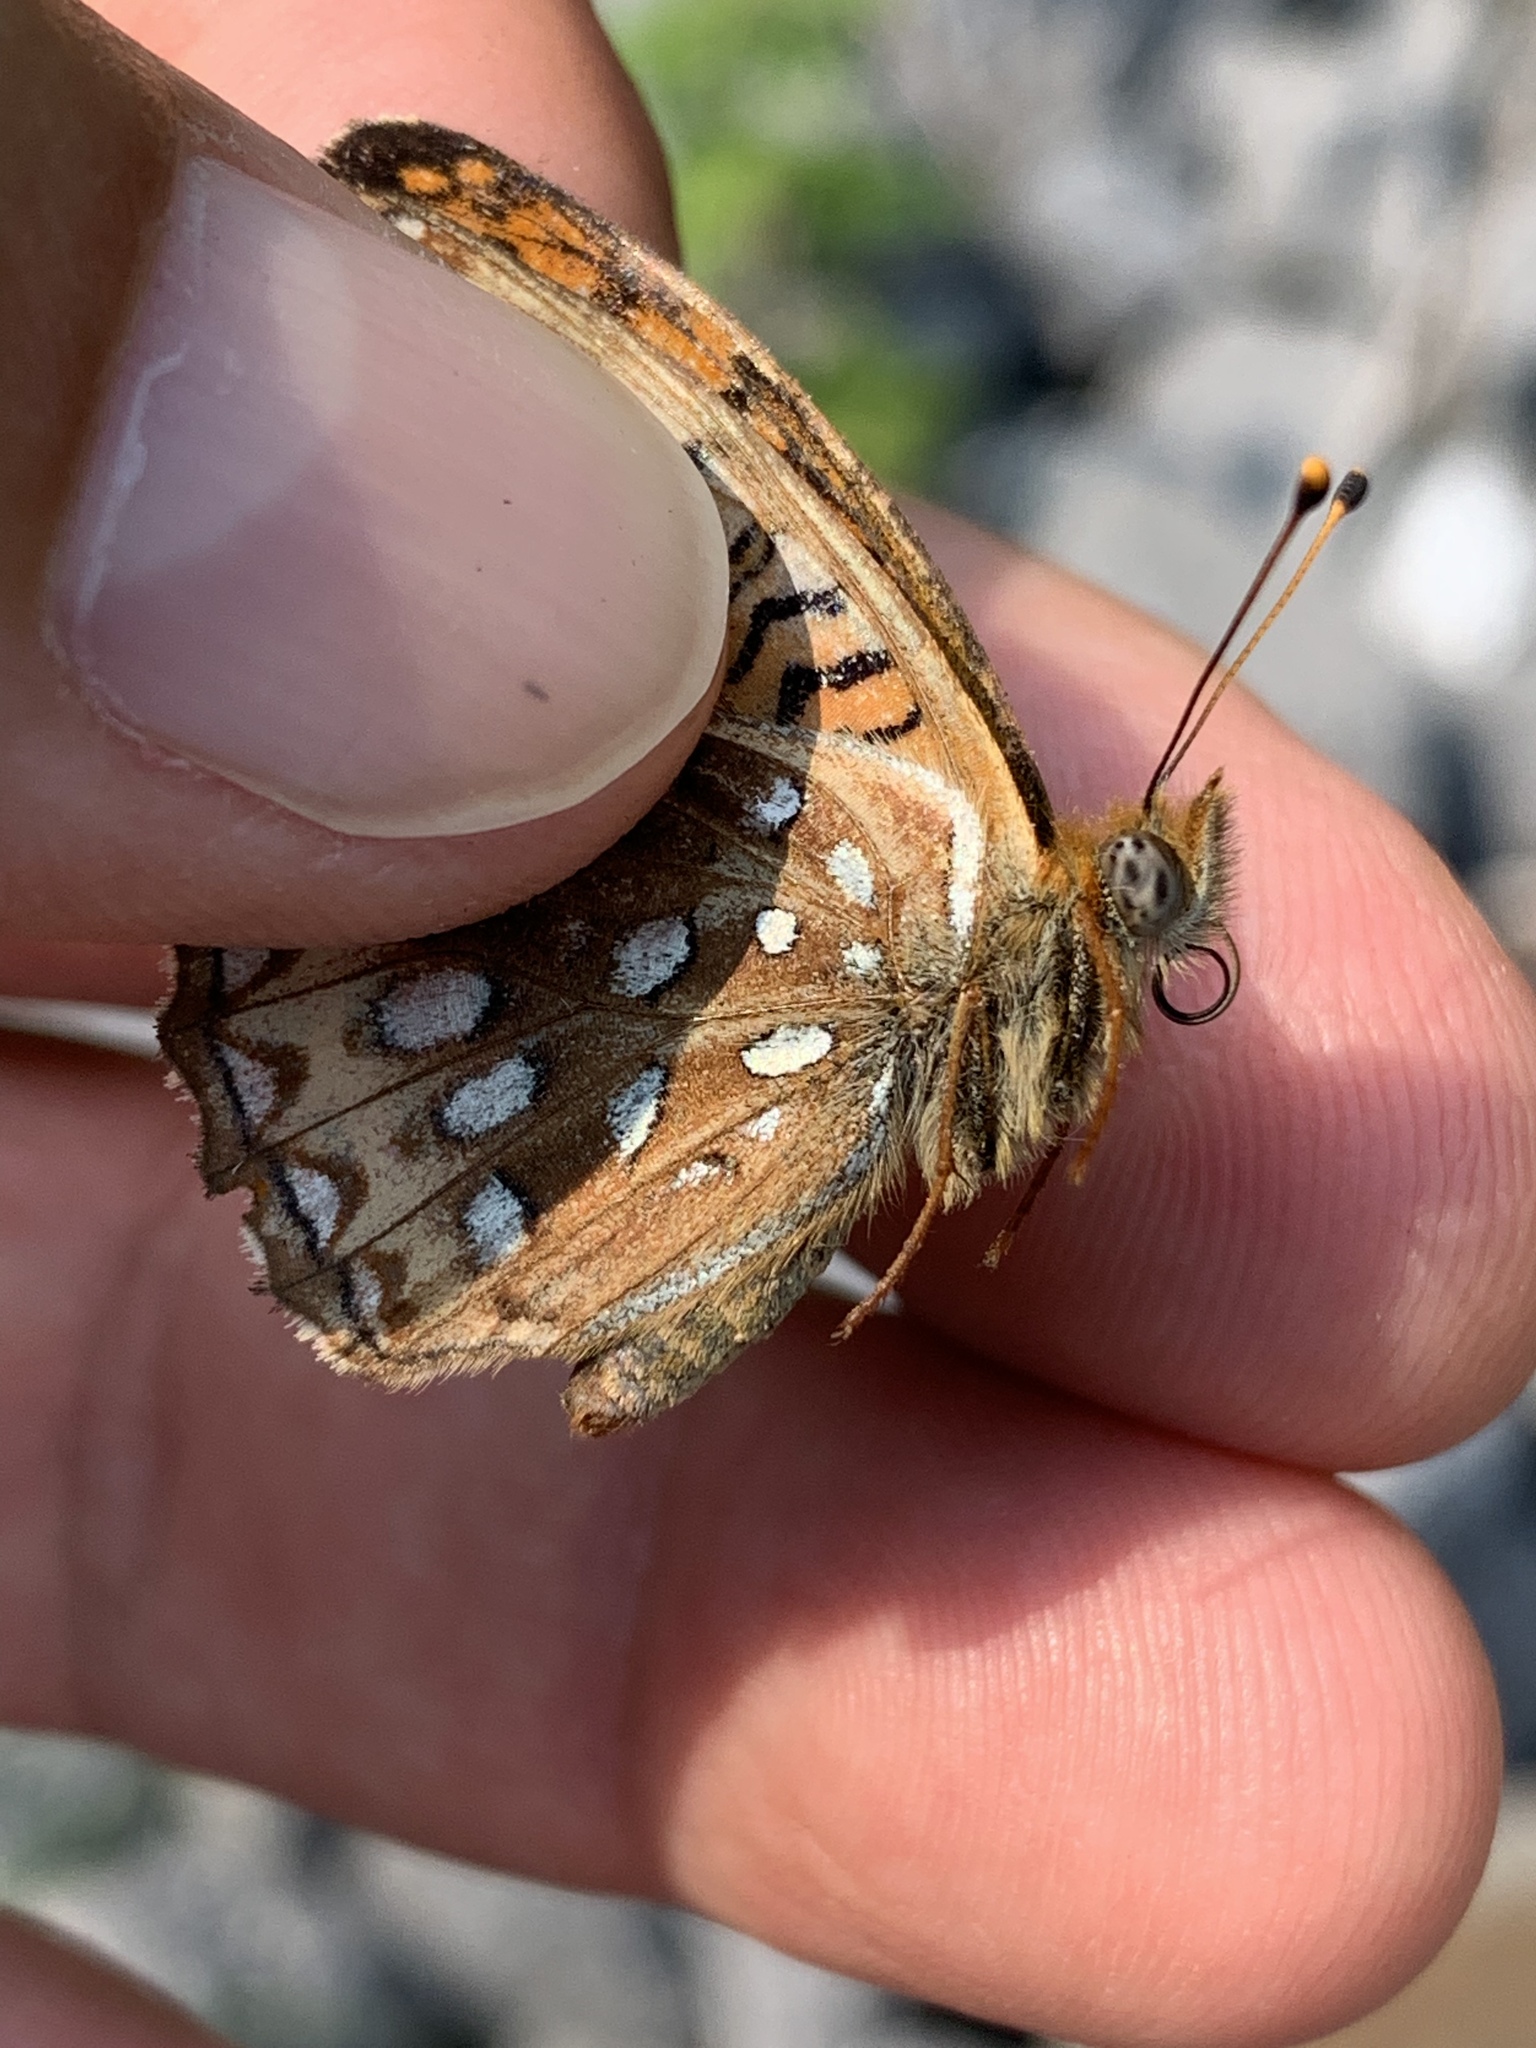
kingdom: Animalia
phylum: Arthropoda
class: Insecta
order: Lepidoptera
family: Nymphalidae
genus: Speyeria
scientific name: Speyeria atlantis
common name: Atlantis fritillary
